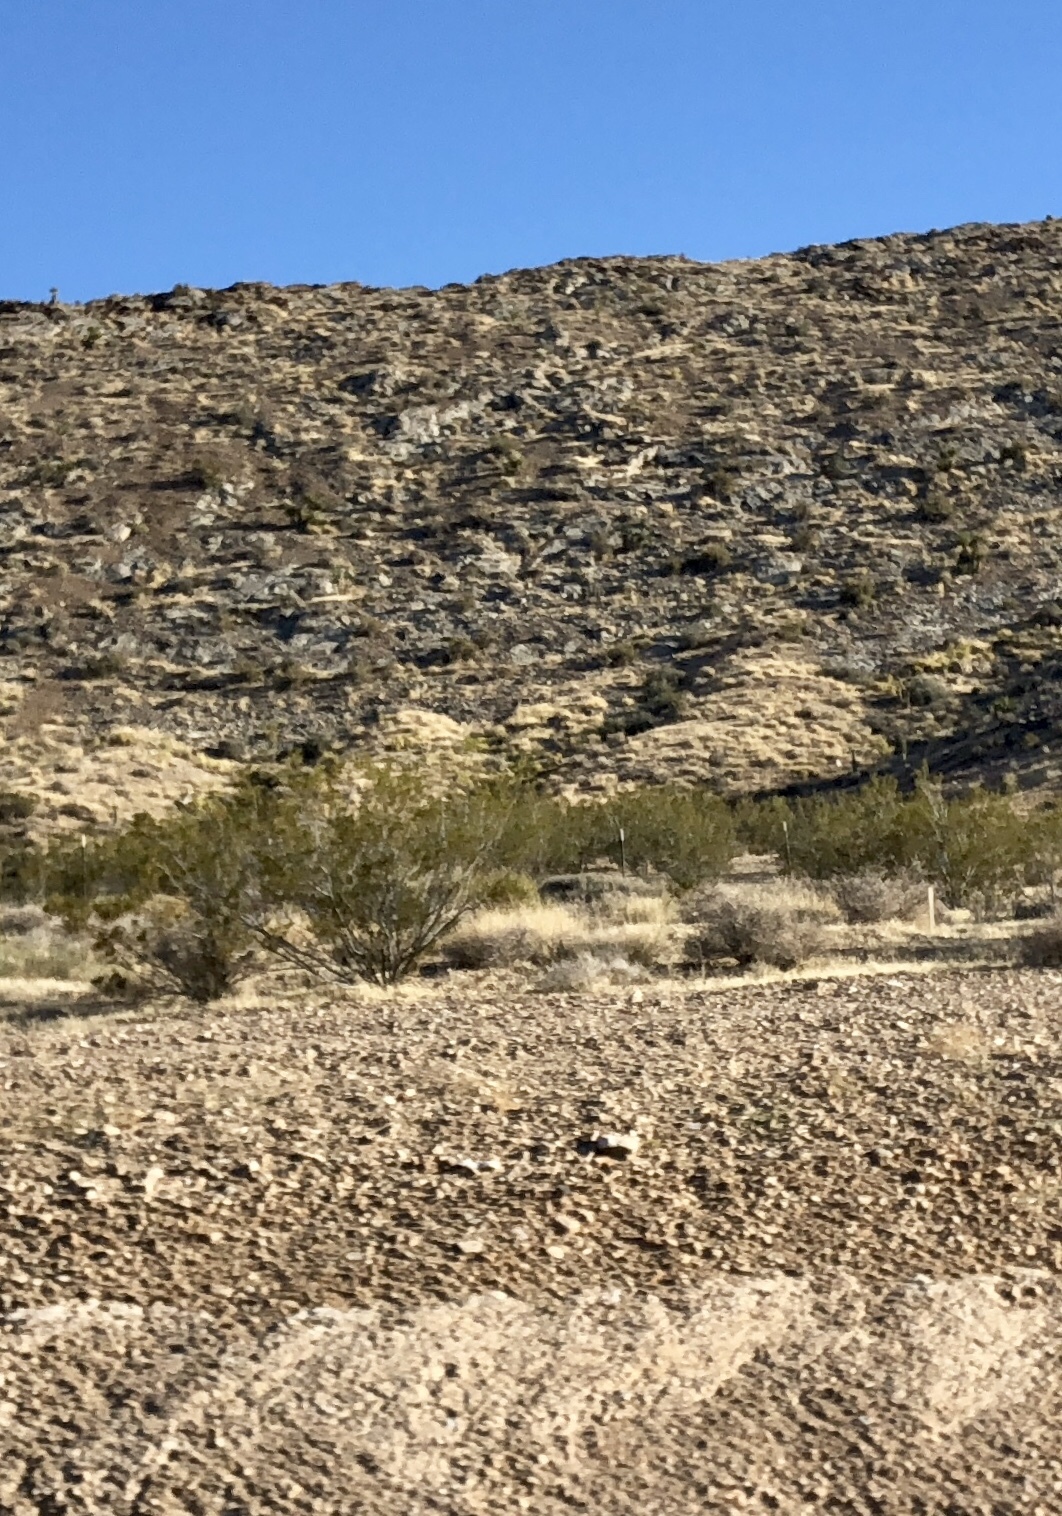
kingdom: Plantae
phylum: Tracheophyta
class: Magnoliopsida
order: Zygophyllales
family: Zygophyllaceae
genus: Larrea
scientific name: Larrea tridentata
